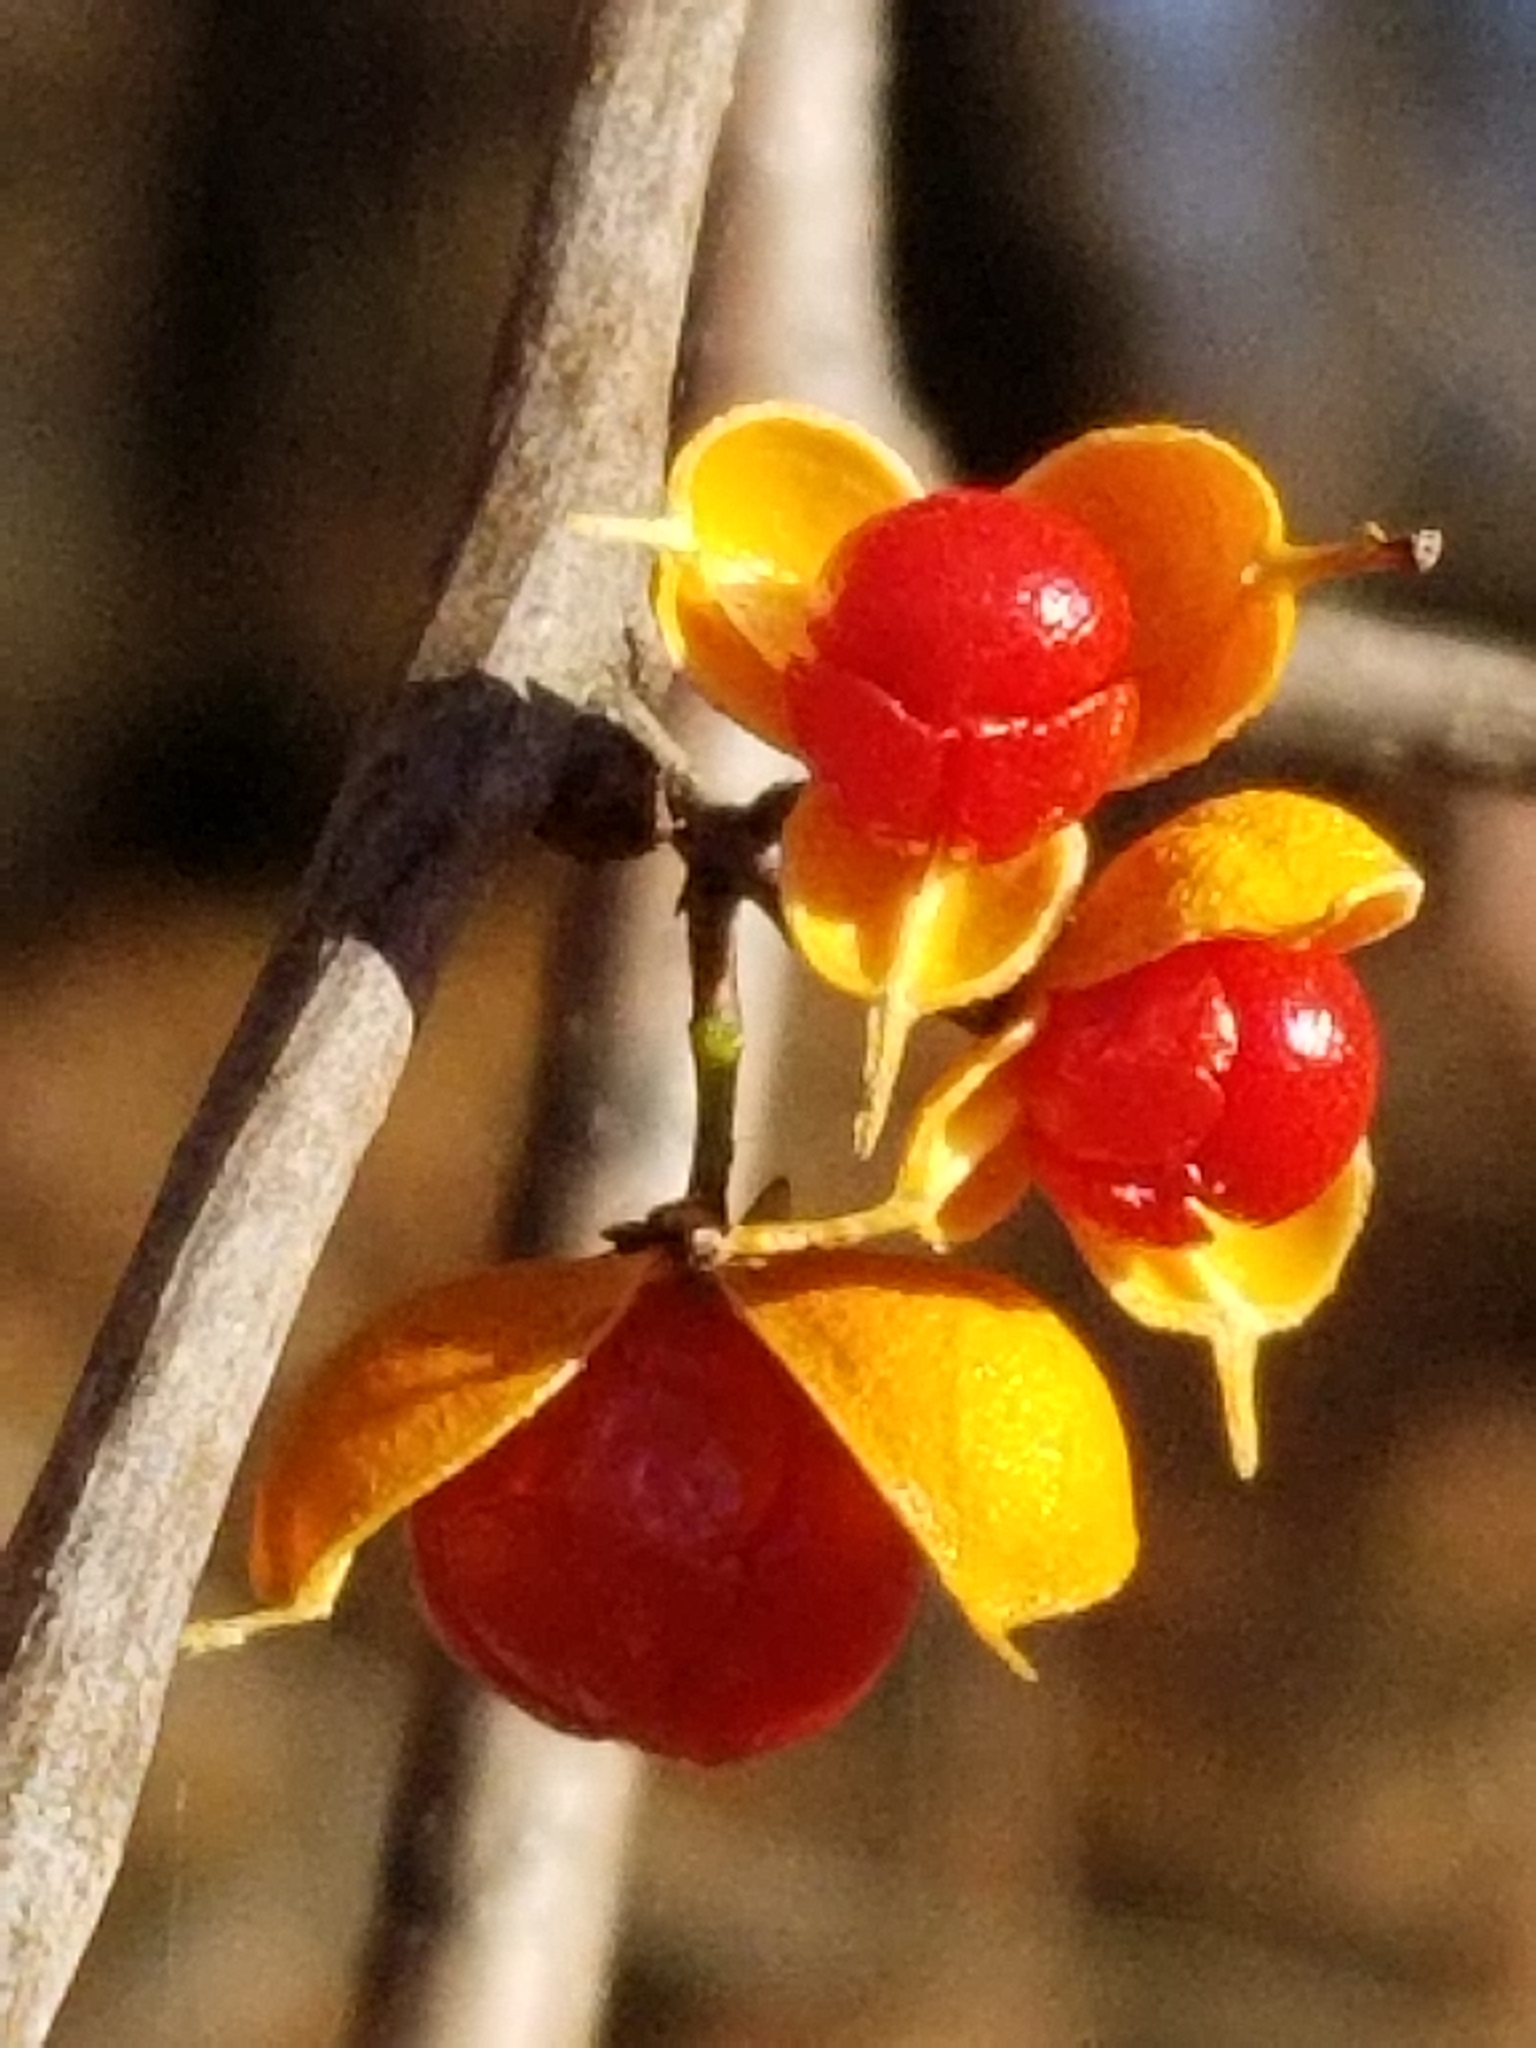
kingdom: Plantae
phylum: Tracheophyta
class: Magnoliopsida
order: Celastrales
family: Celastraceae
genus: Celastrus
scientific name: Celastrus orbiculatus
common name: Oriental bittersweet
